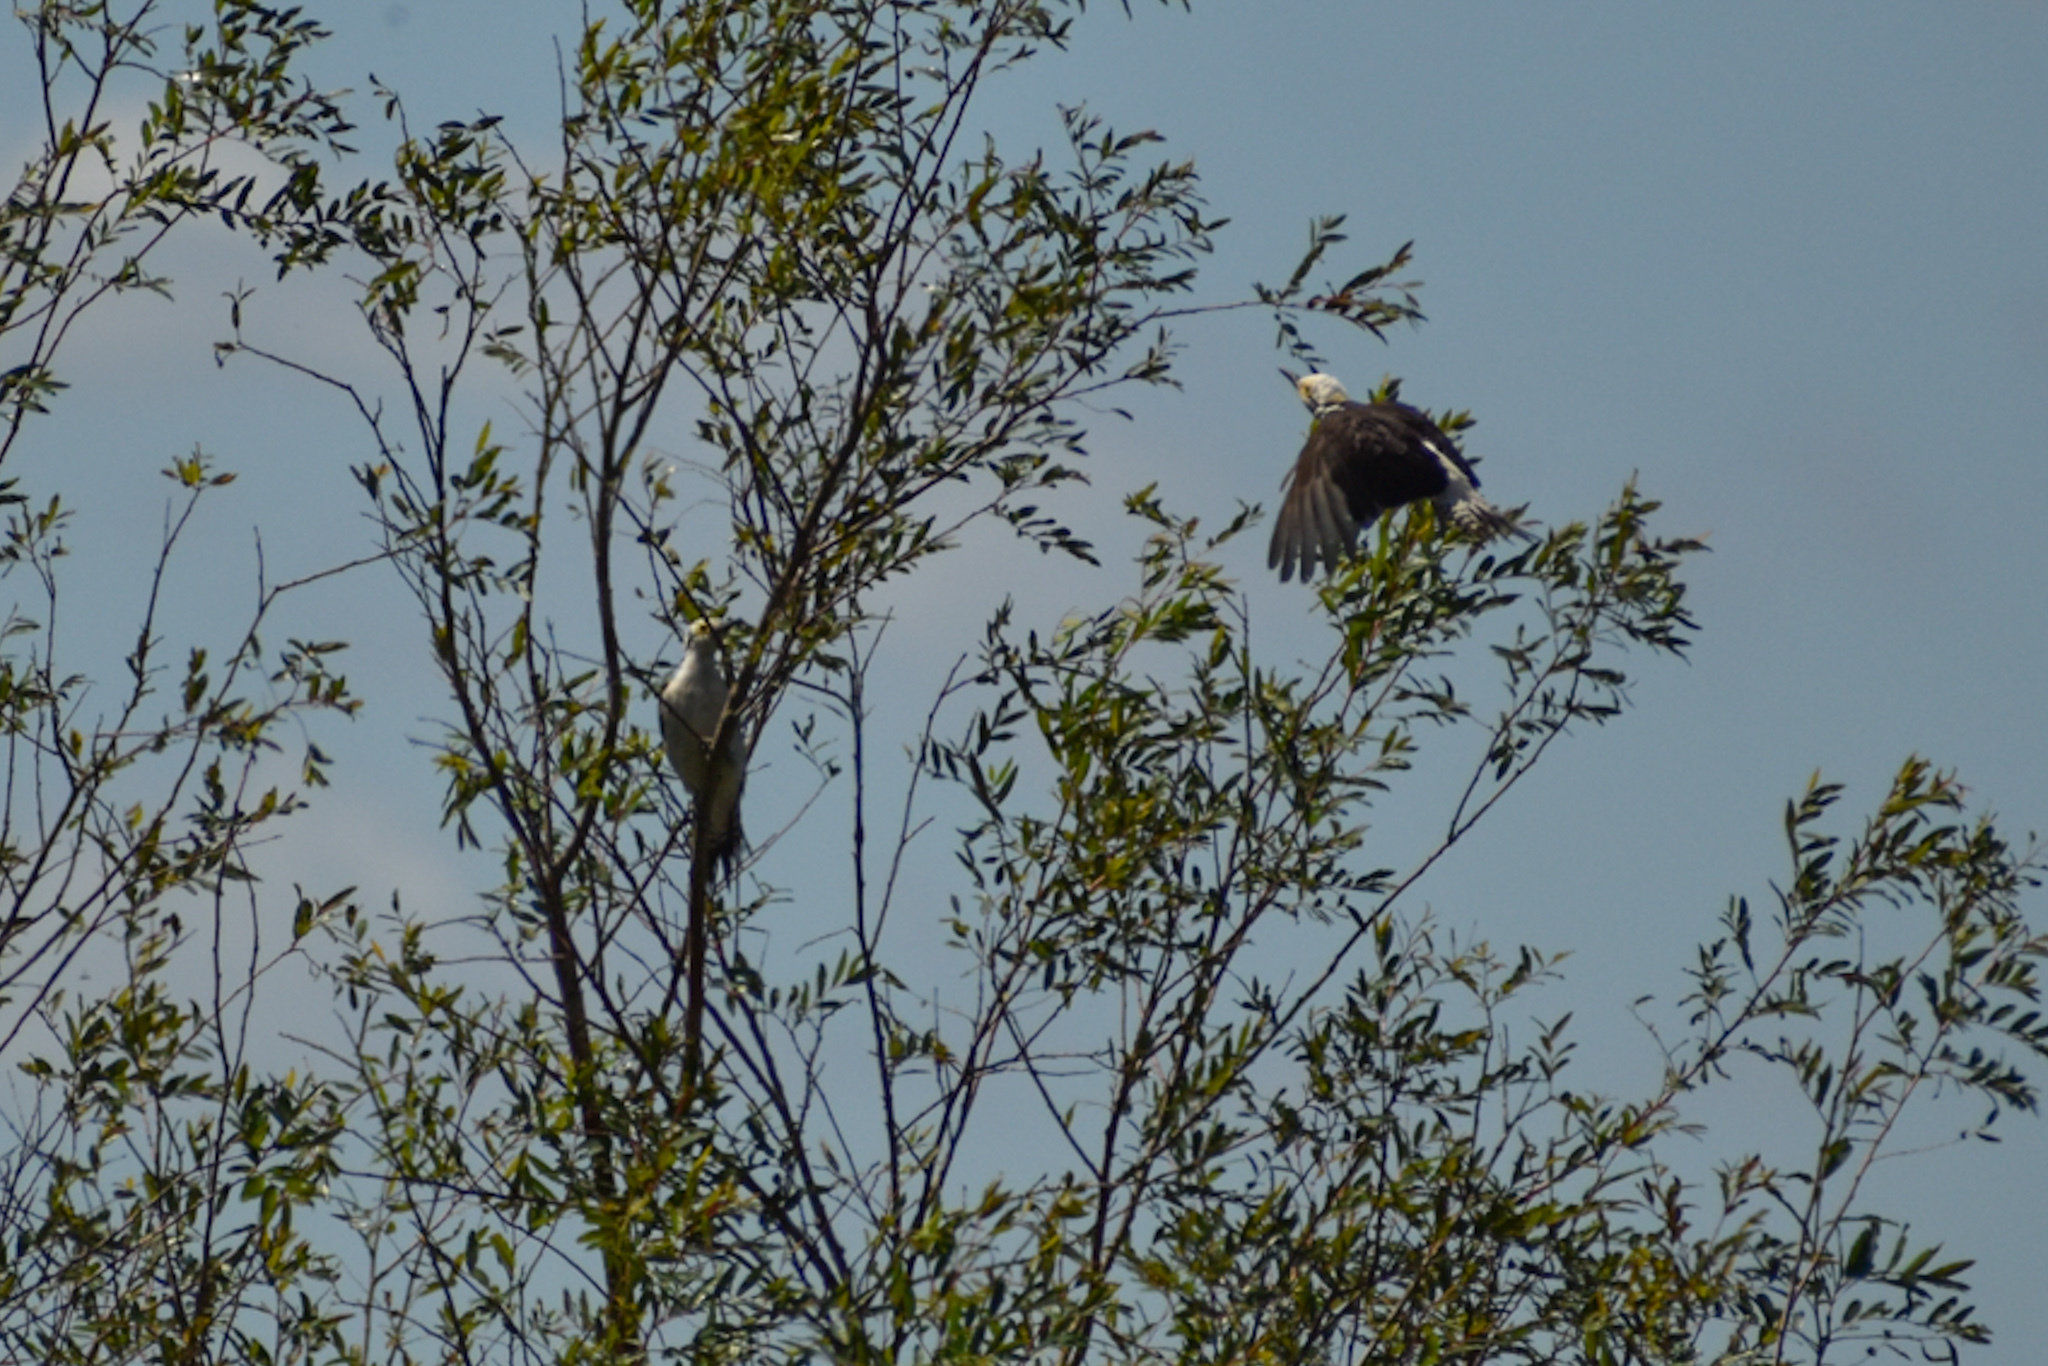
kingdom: Animalia
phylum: Chordata
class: Aves
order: Piciformes
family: Picidae
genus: Melanerpes
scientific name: Melanerpes candidus
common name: White woodpecker
